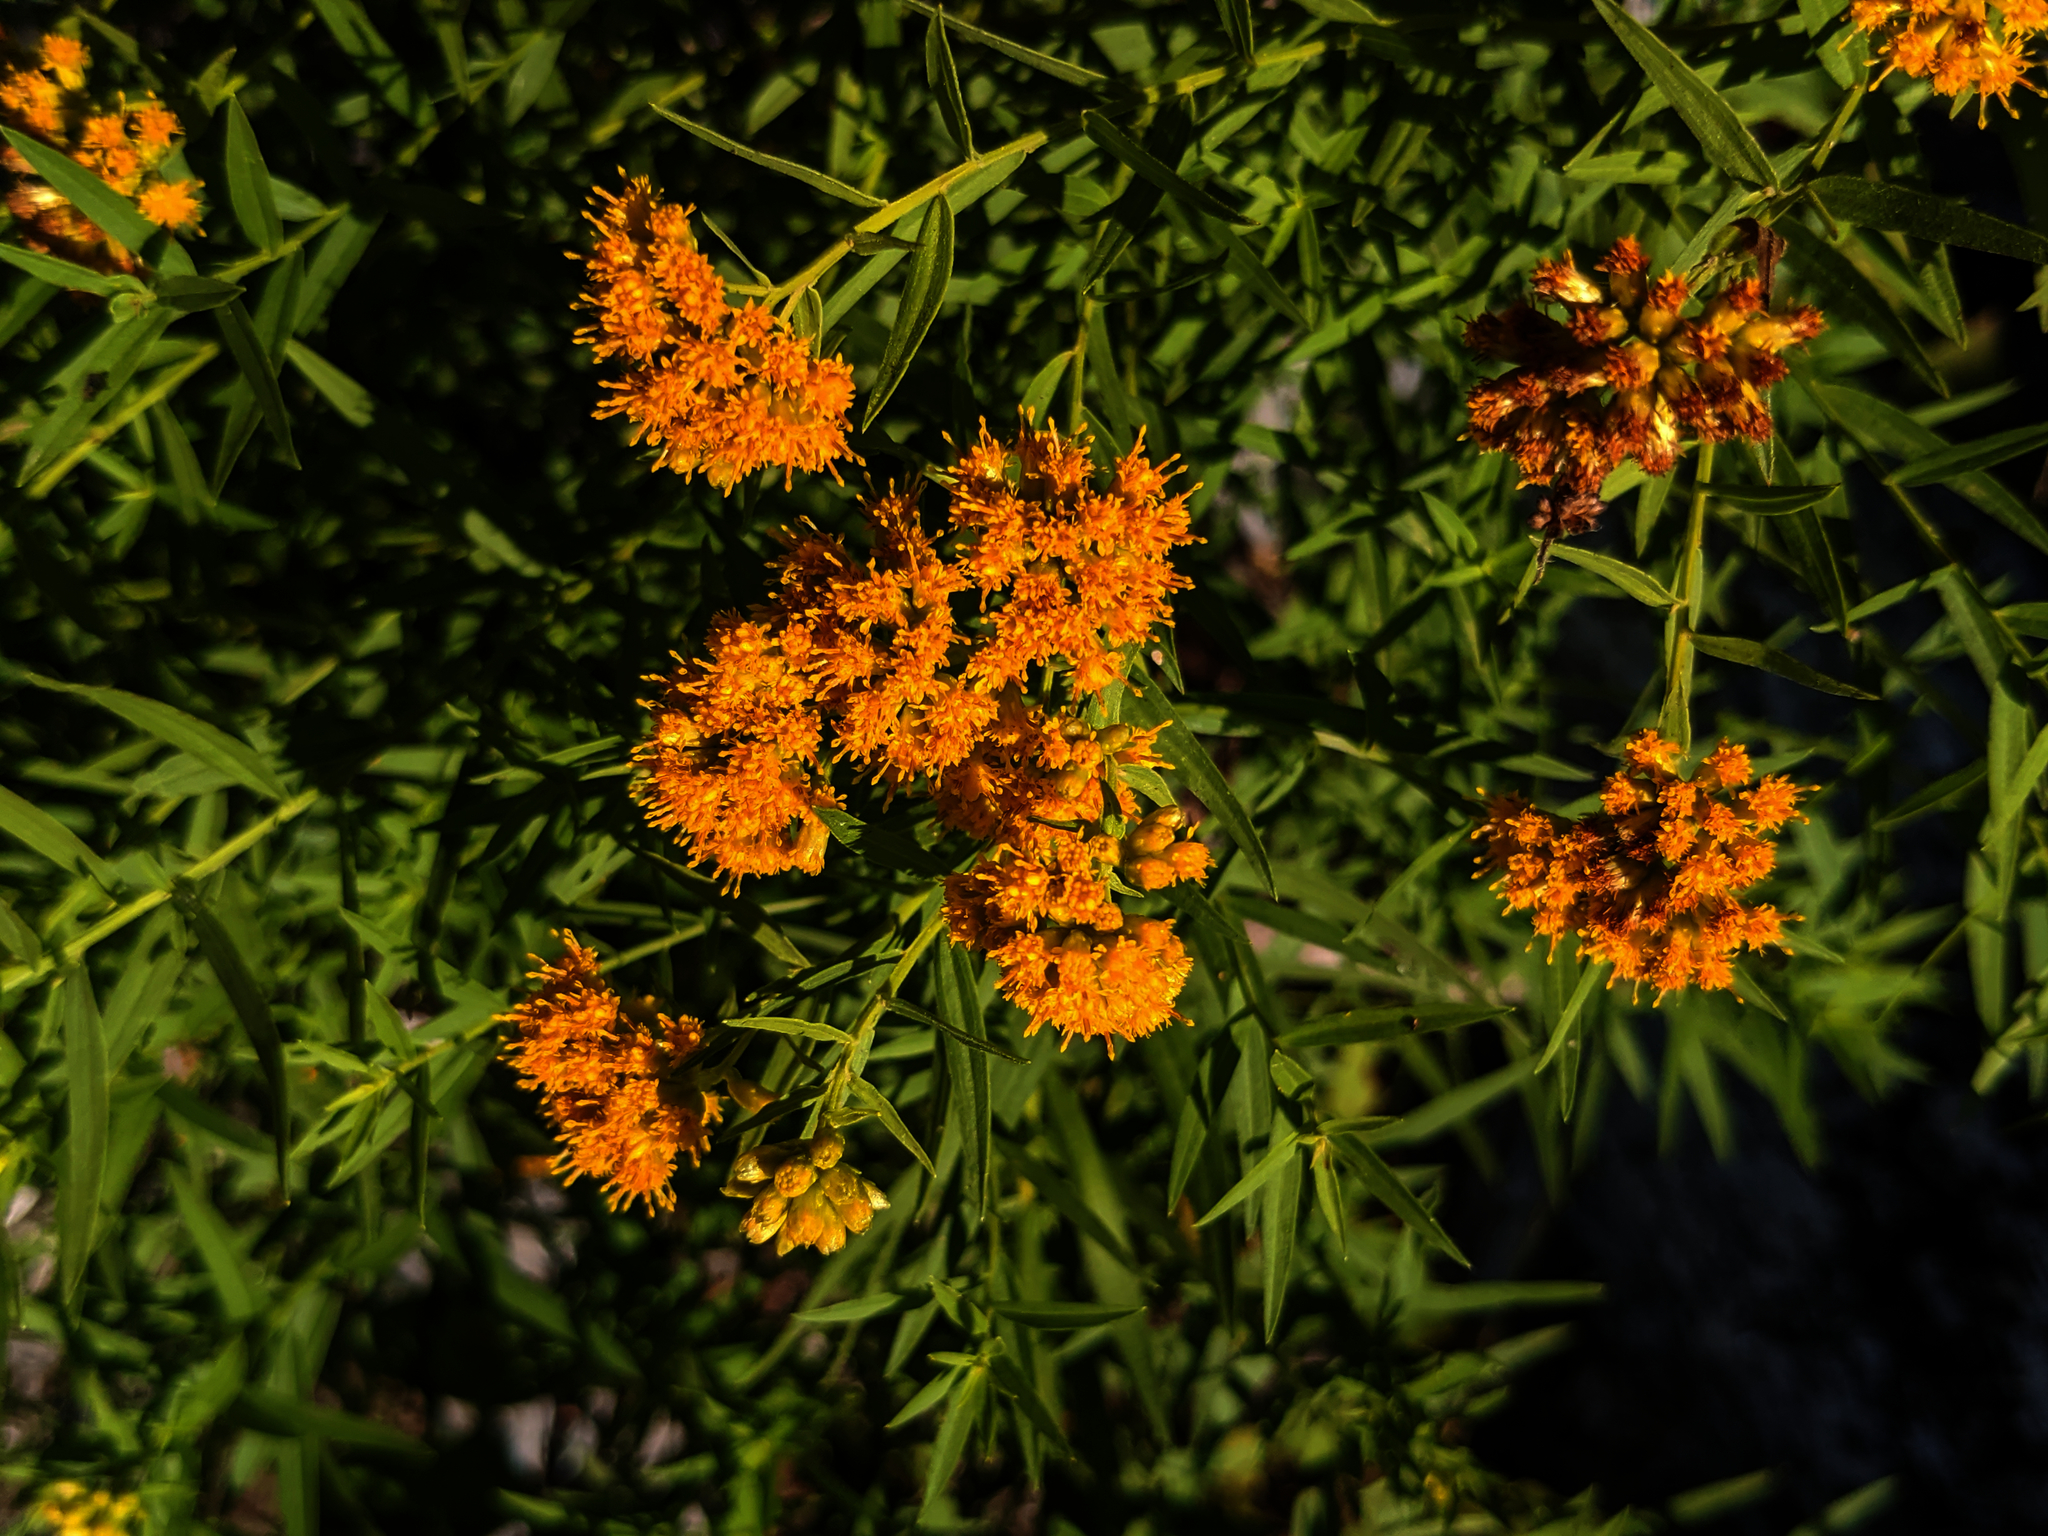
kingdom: Plantae
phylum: Tracheophyta
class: Magnoliopsida
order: Asterales
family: Asteraceae
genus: Euthamia
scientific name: Euthamia graminifolia
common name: Common goldentop
